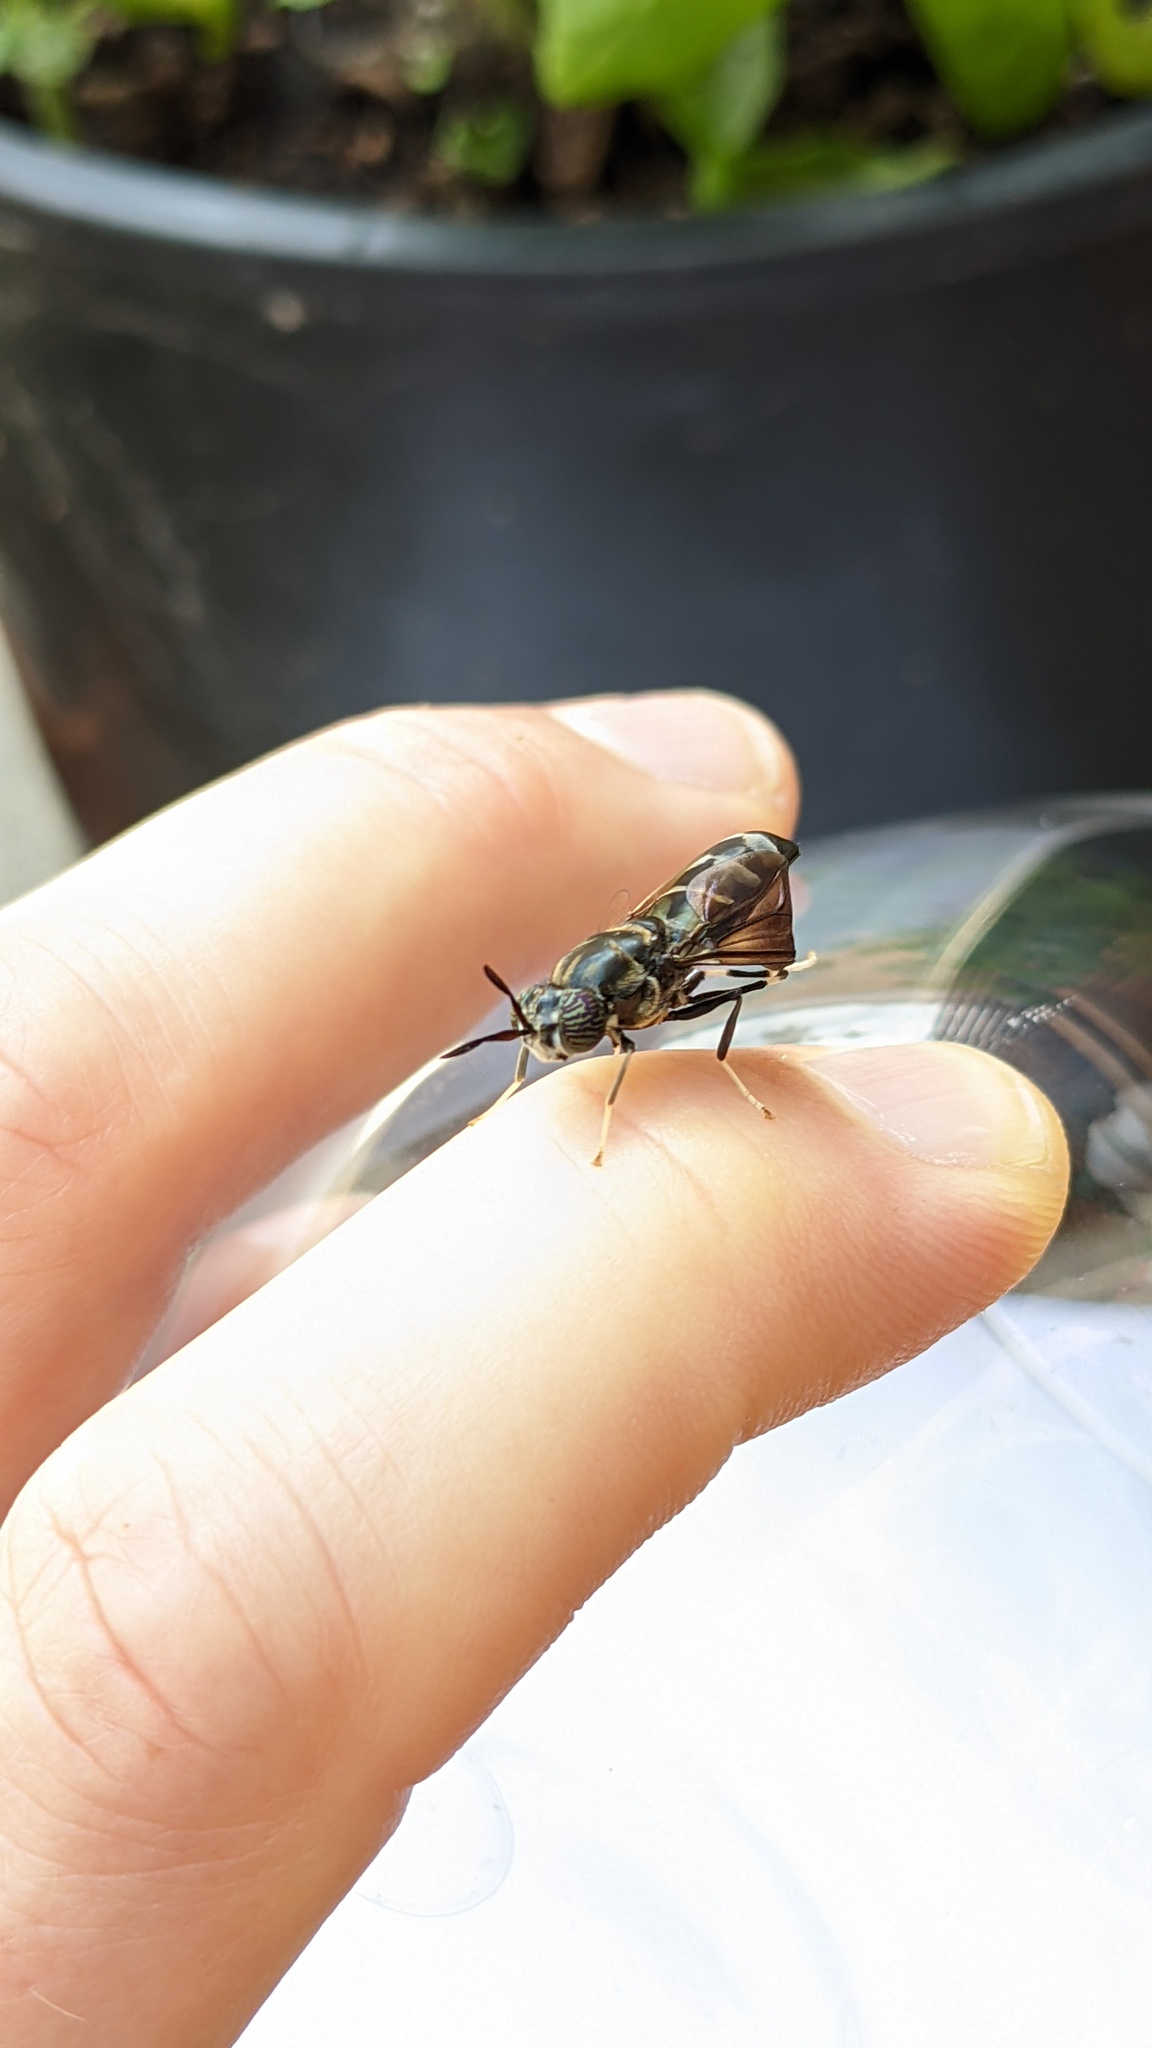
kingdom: Animalia
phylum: Arthropoda
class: Insecta
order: Diptera
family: Stratiomyidae
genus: Hermetia
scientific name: Hermetia illucens
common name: Black soldier fly
